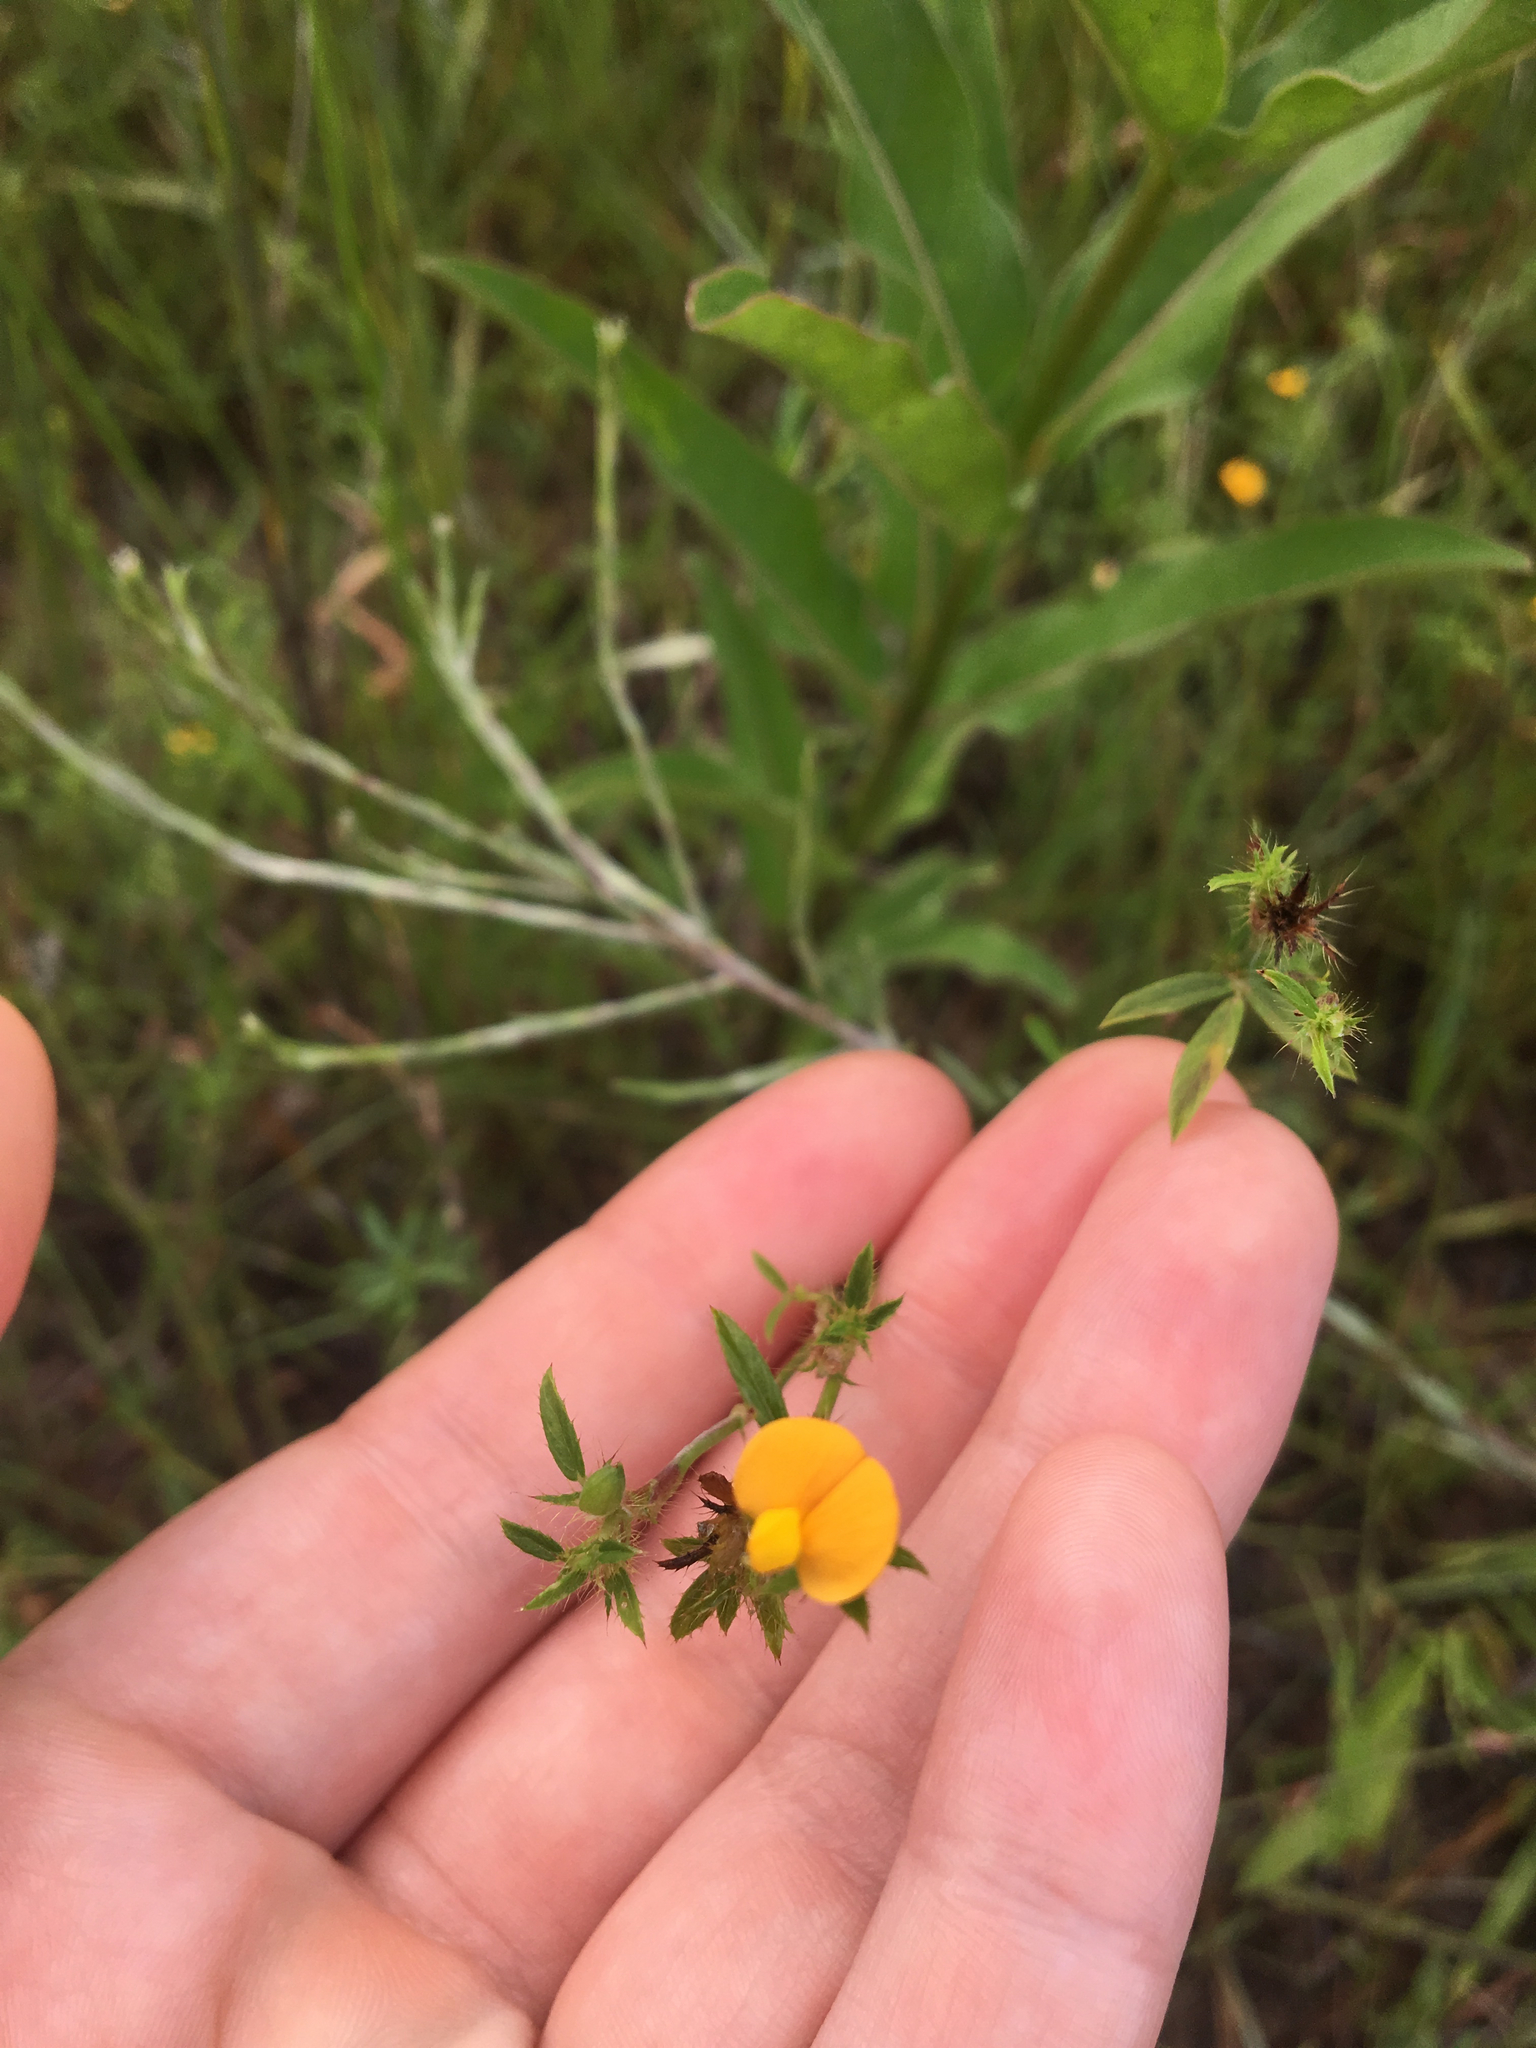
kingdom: Plantae
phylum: Tracheophyta
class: Magnoliopsida
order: Fabales
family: Fabaceae
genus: Stylosanthes
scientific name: Stylosanthes biflora
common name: Two-flower pencil-flower
